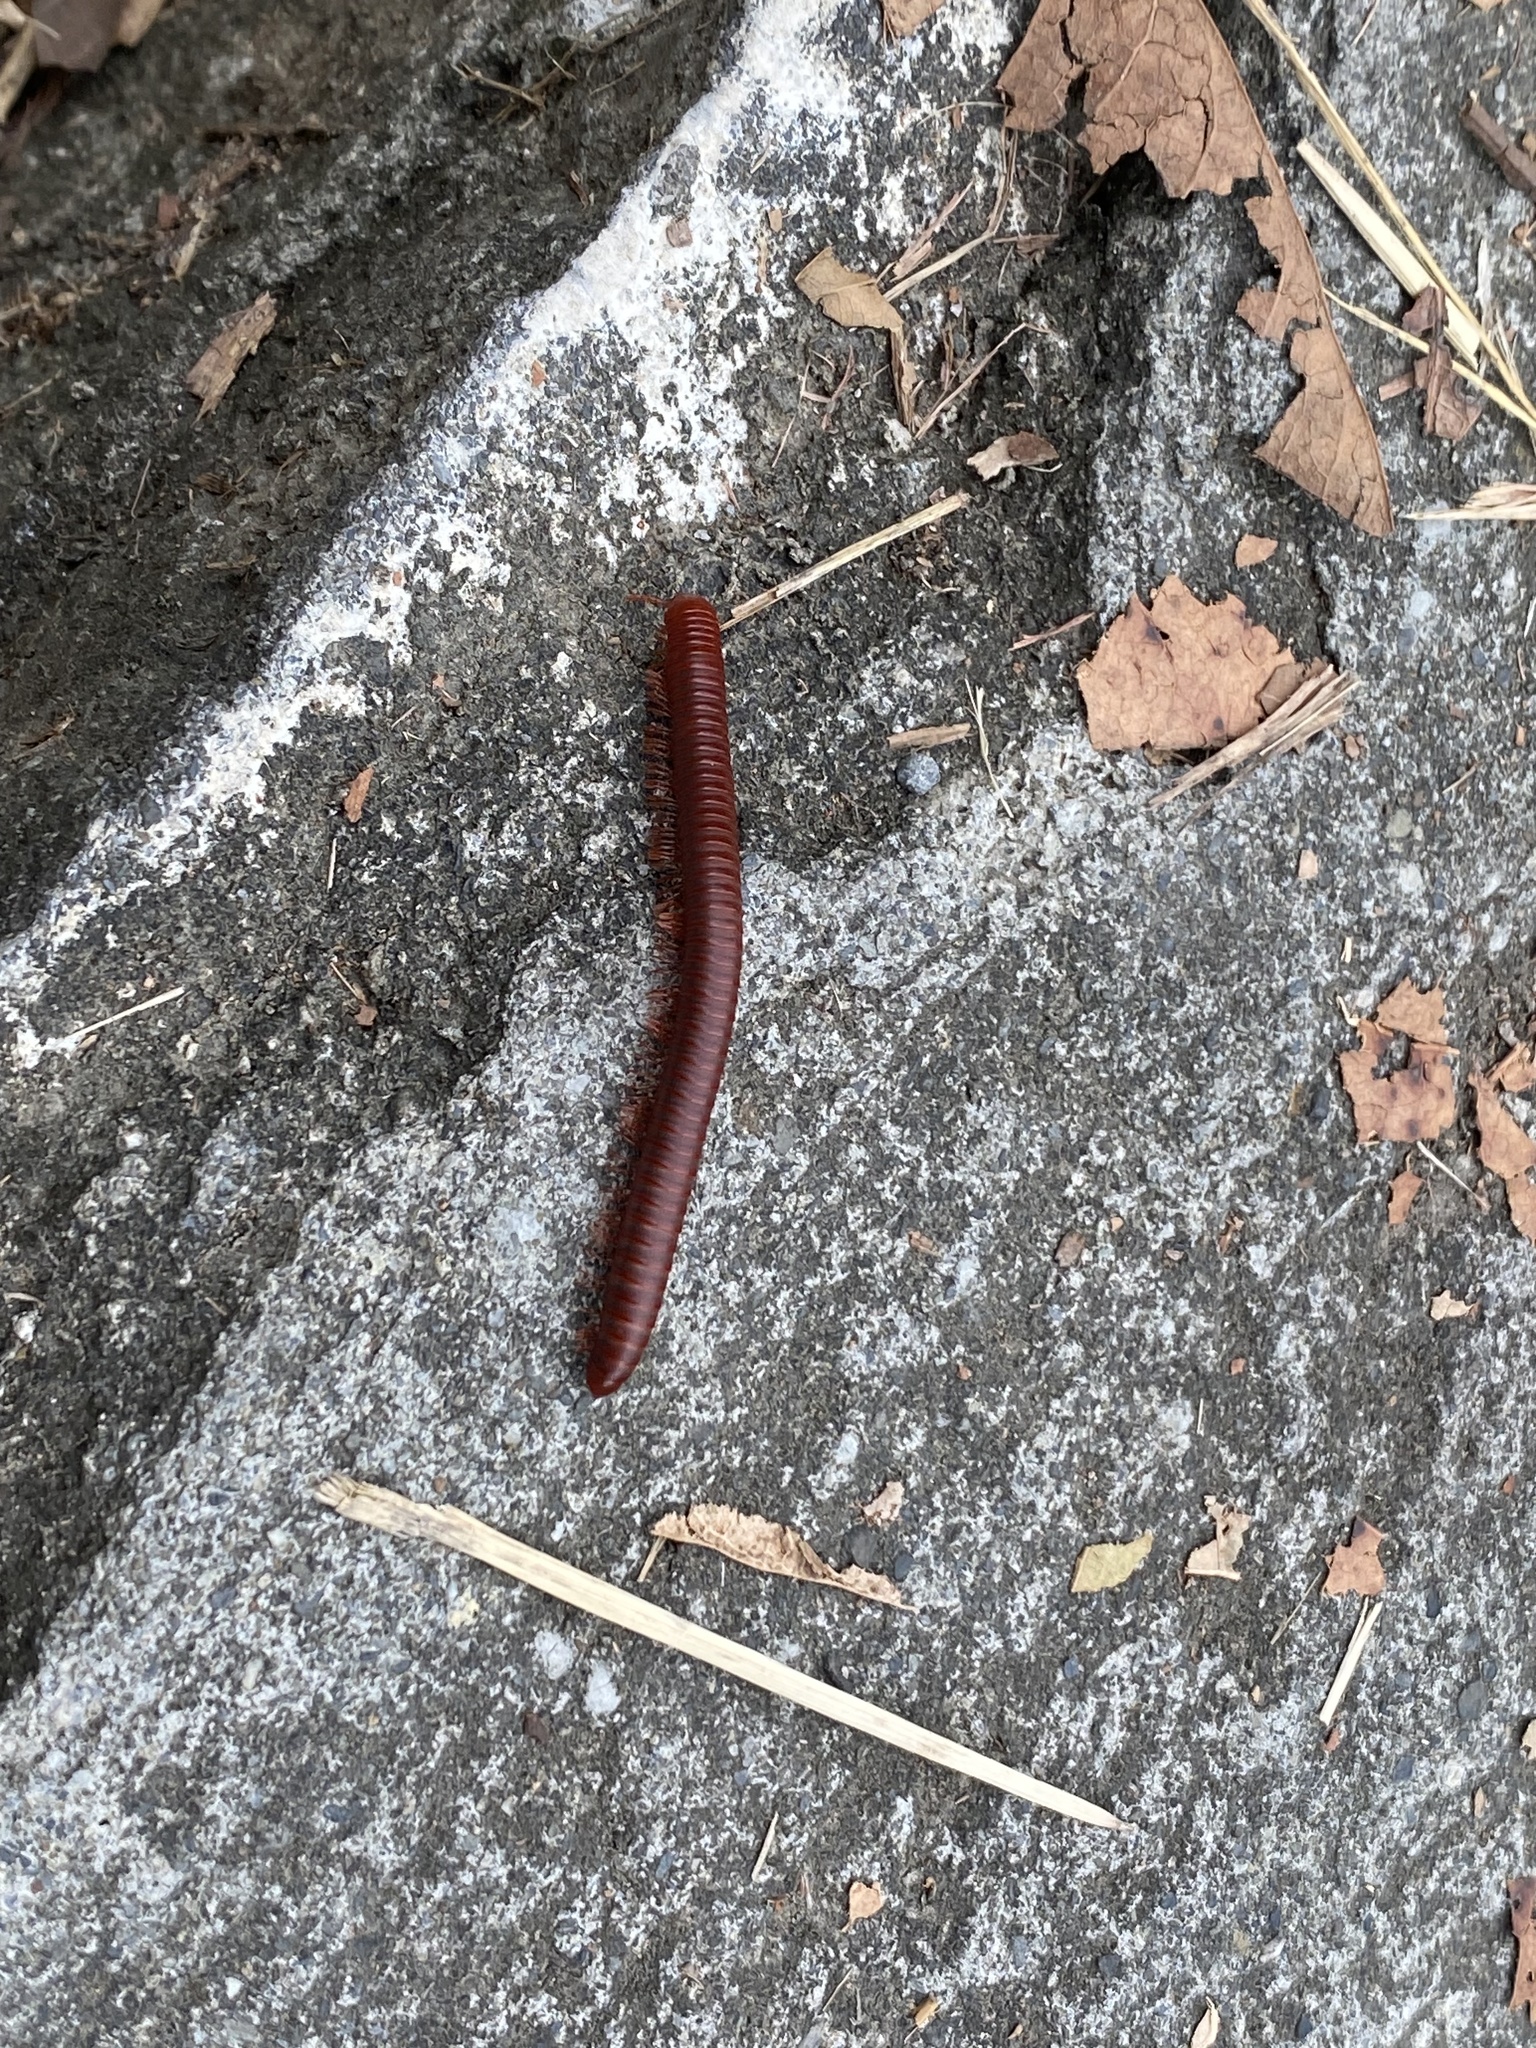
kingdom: Animalia
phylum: Arthropoda
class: Diplopoda
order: Spirobolida
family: Pachybolidae
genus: Trigoniulus
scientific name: Trigoniulus corallinus
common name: Millipede
